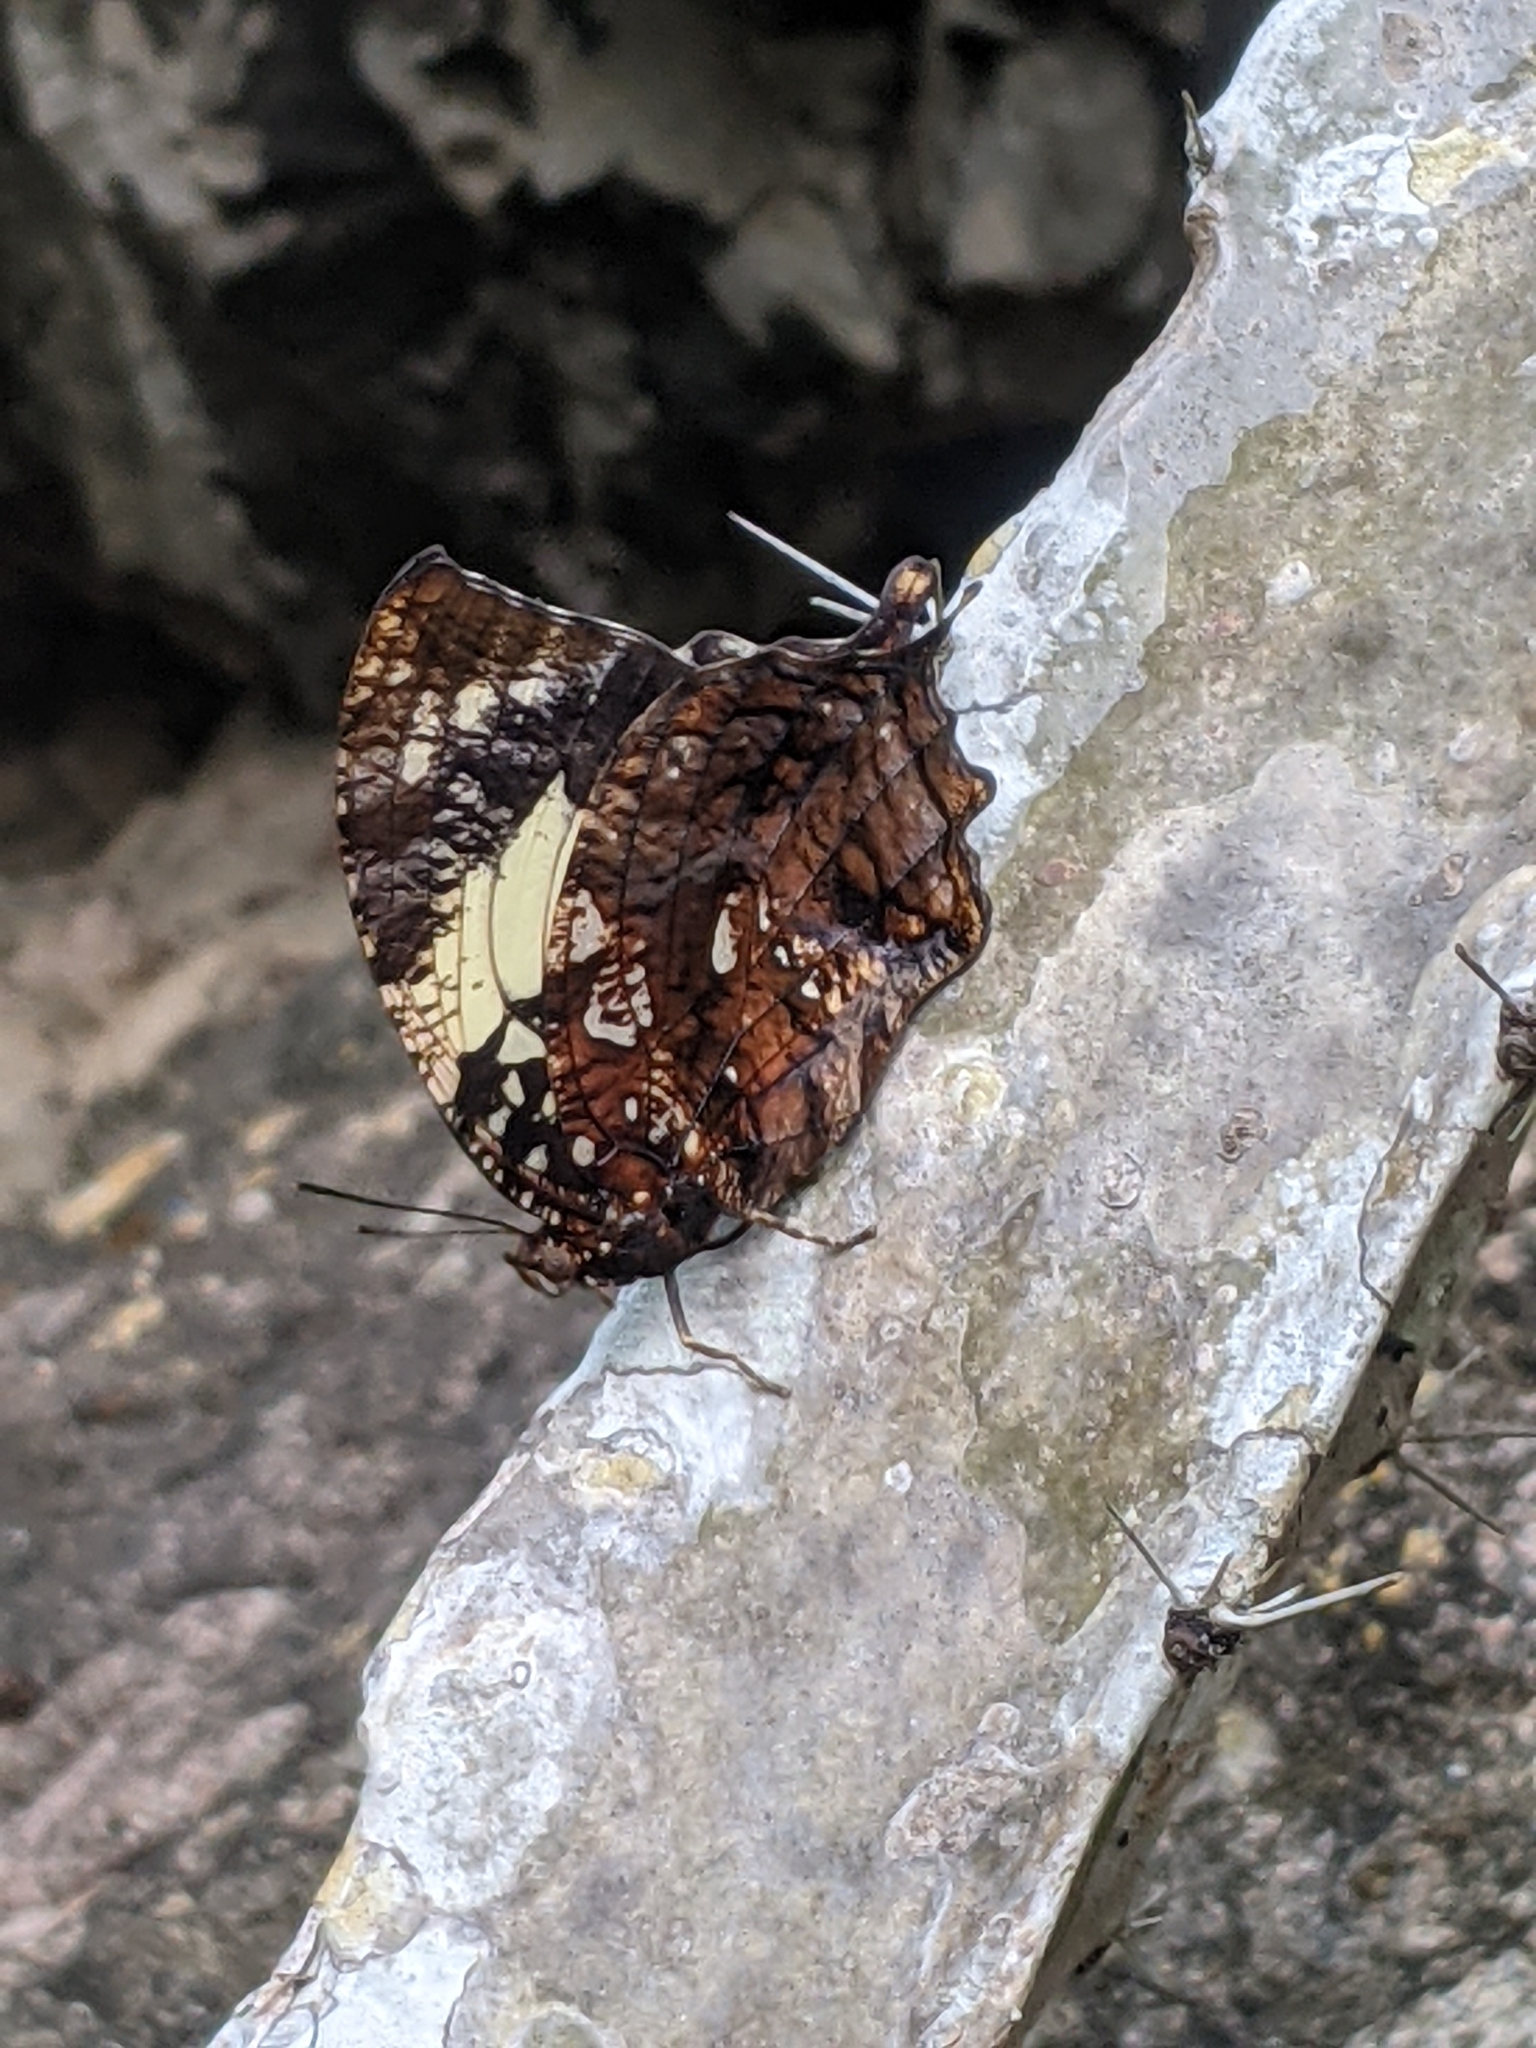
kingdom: Animalia
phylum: Arthropoda
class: Insecta
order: Lepidoptera
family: Nymphalidae
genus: Hypna
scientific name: Hypna clytemnestra
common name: Silver-studded leafwing
